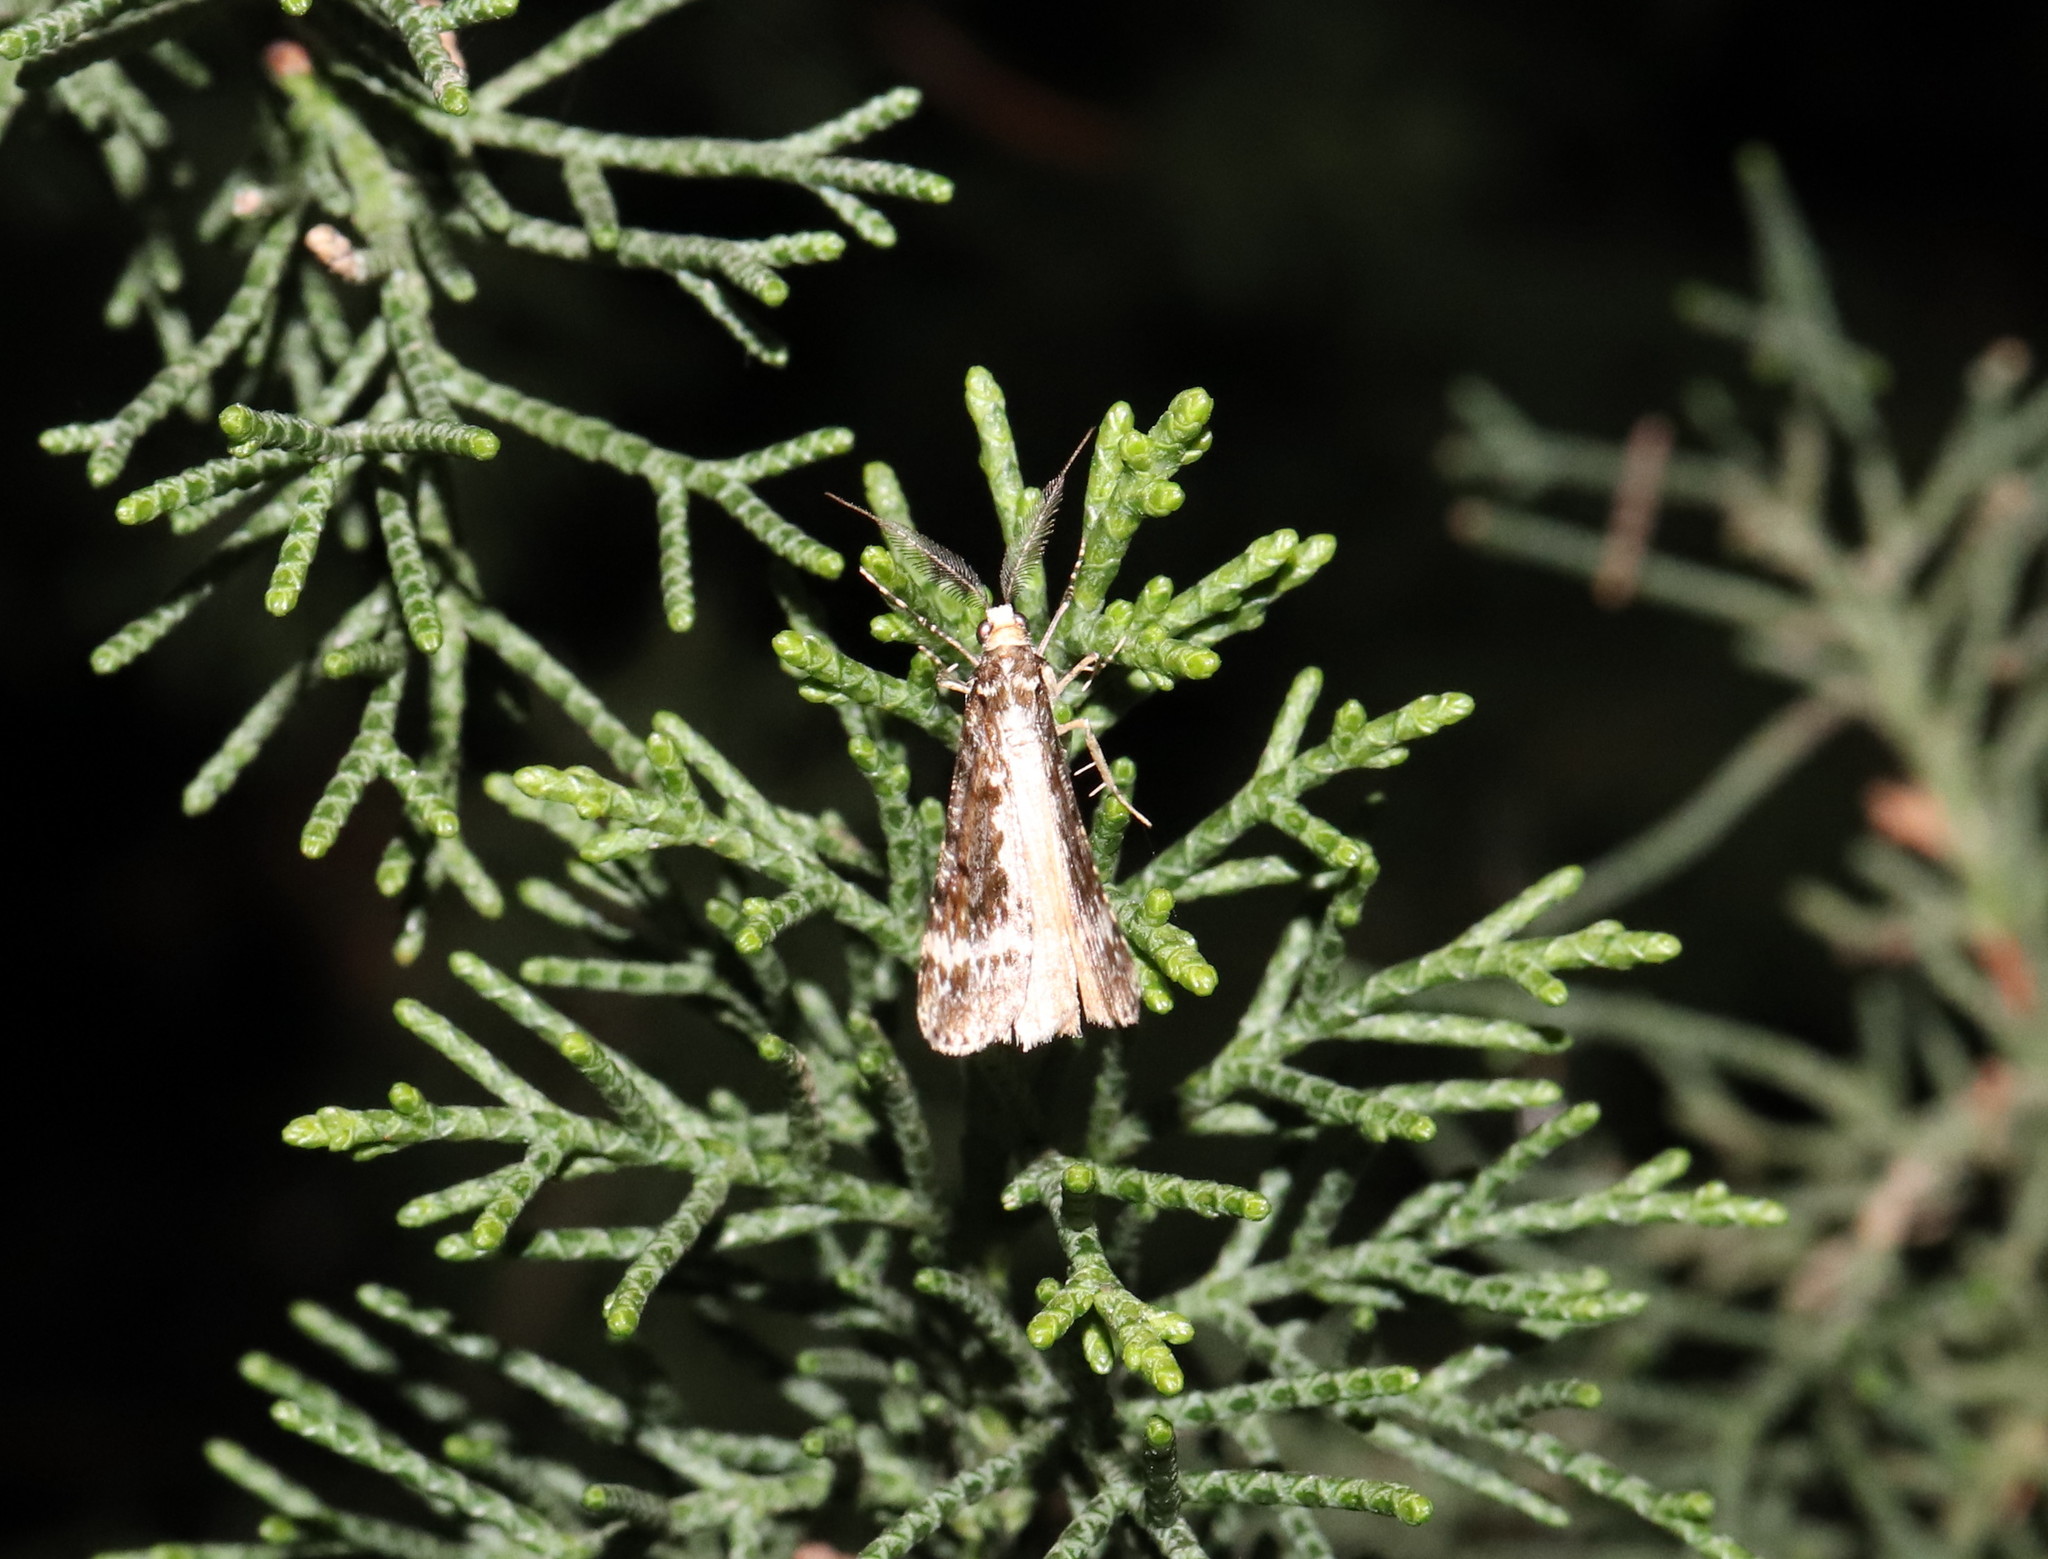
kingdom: Animalia
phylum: Arthropoda
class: Insecta
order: Lepidoptera
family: Geometridae
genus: Pseudocoremia
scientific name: Pseudocoremia leucelaea
